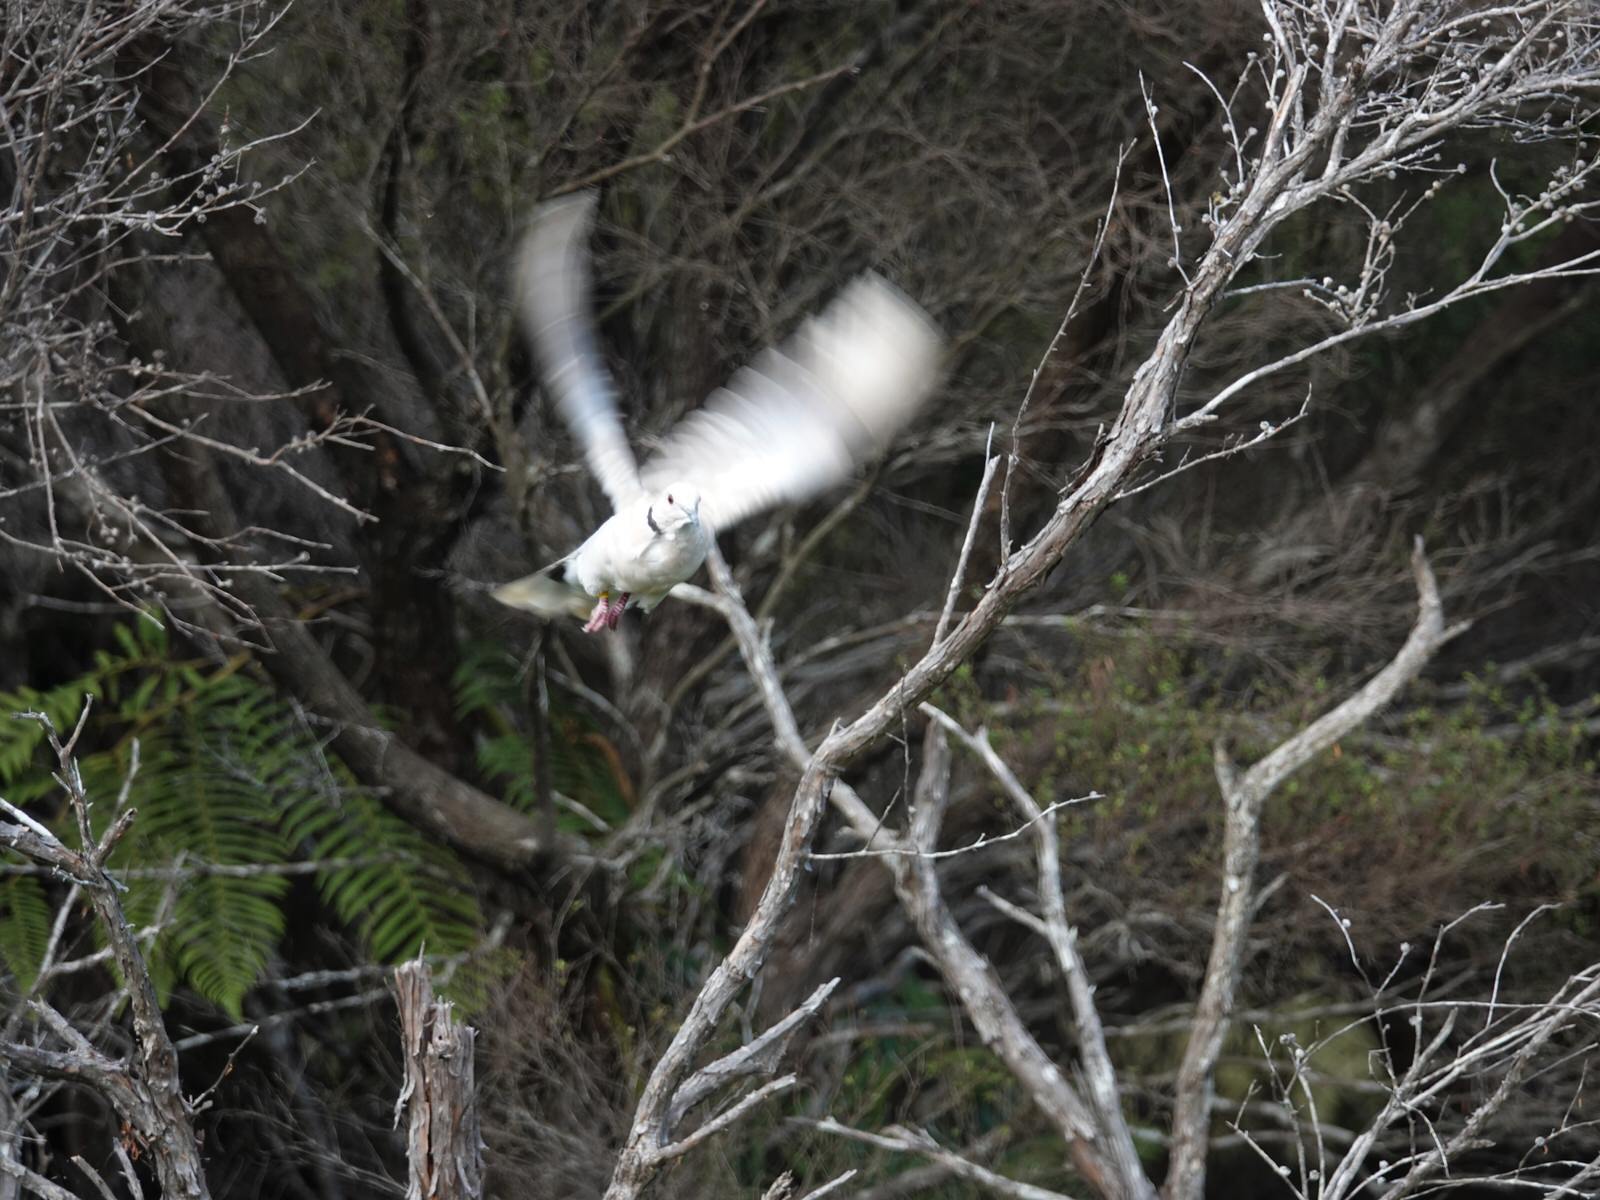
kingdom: Animalia
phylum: Chordata
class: Aves
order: Columbiformes
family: Columbidae
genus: Streptopelia
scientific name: Streptopelia roseogrisea
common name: African collared dove
